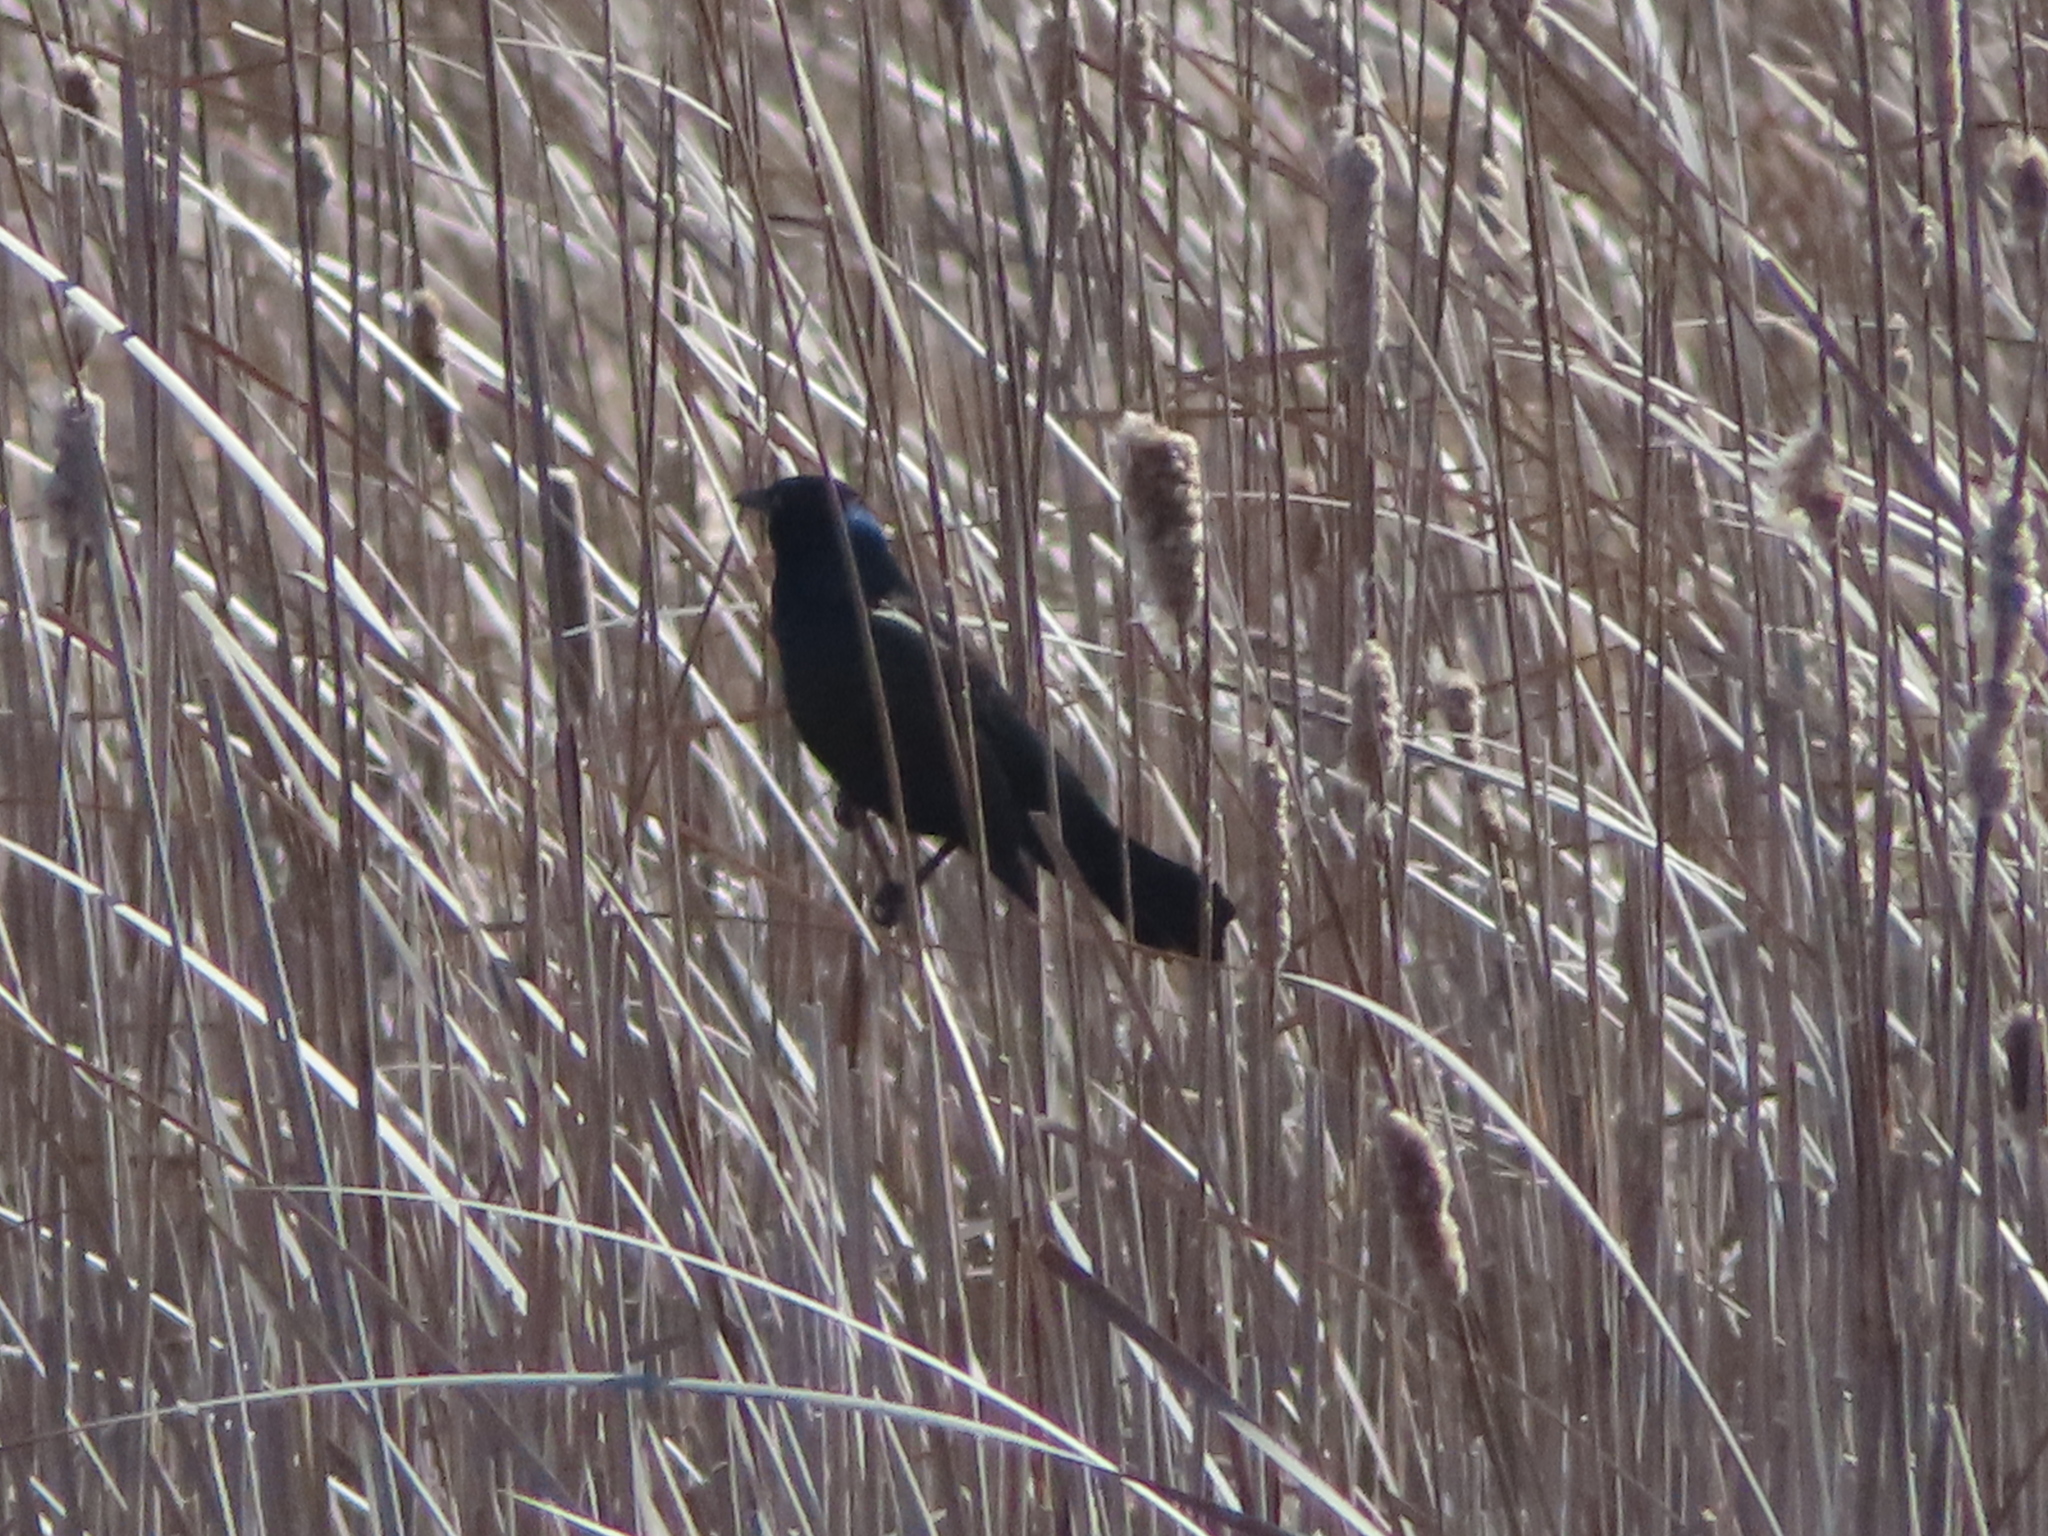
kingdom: Animalia
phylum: Chordata
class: Aves
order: Passeriformes
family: Icteridae
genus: Agelaius
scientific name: Agelaius phoeniceus
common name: Red-winged blackbird
